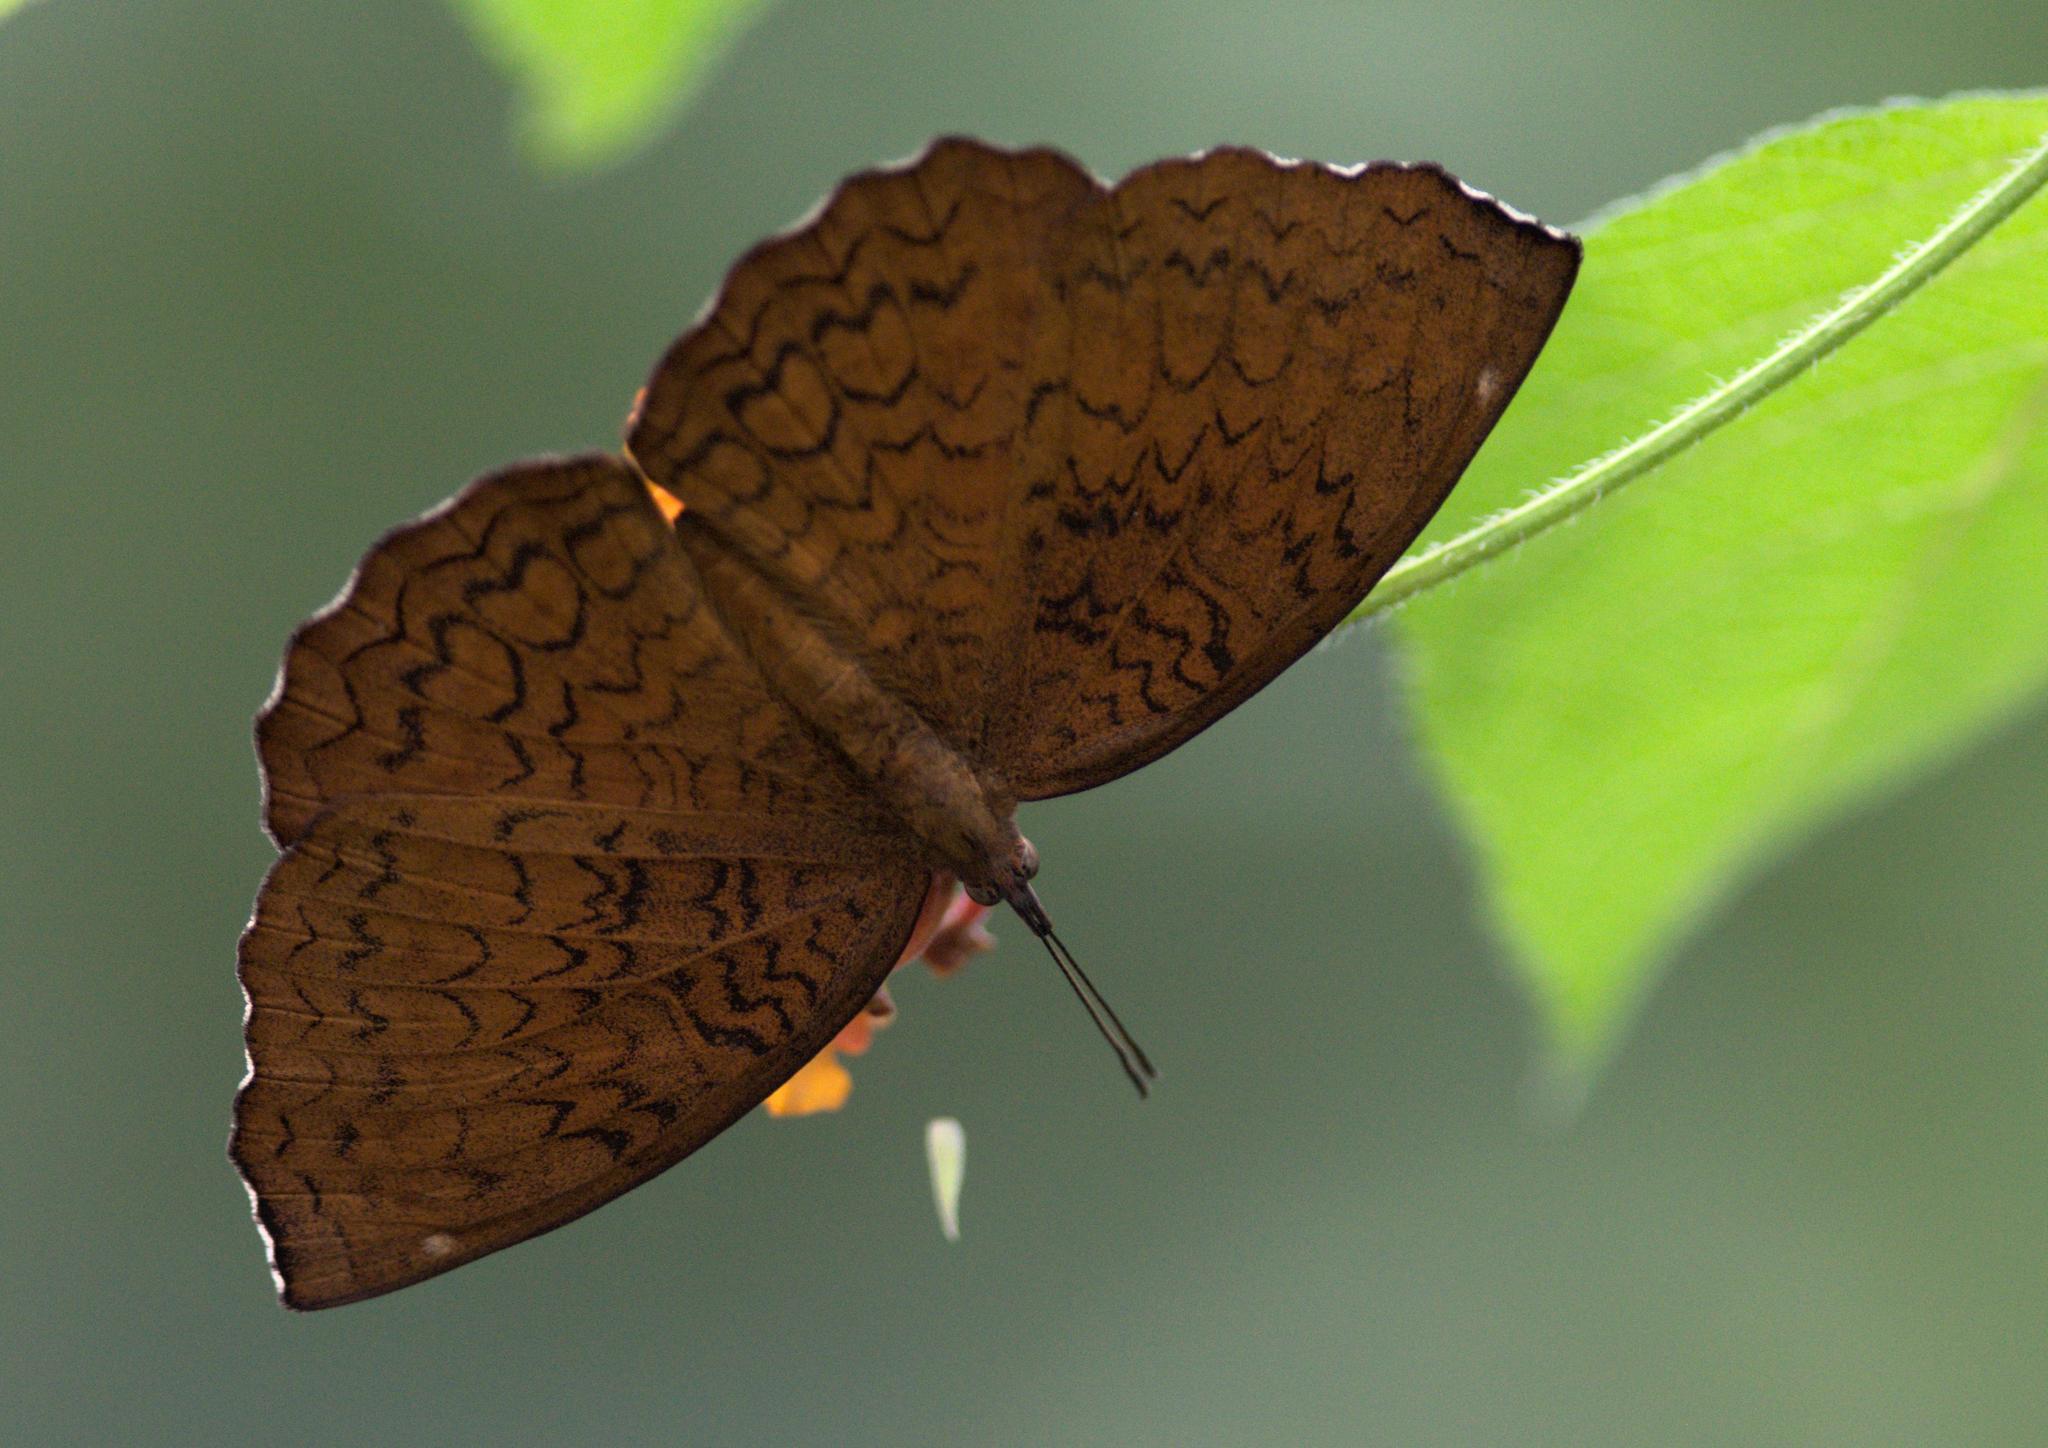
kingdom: Animalia
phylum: Arthropoda
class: Insecta
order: Lepidoptera
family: Nymphalidae
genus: Ariadne
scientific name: Ariadne merione
